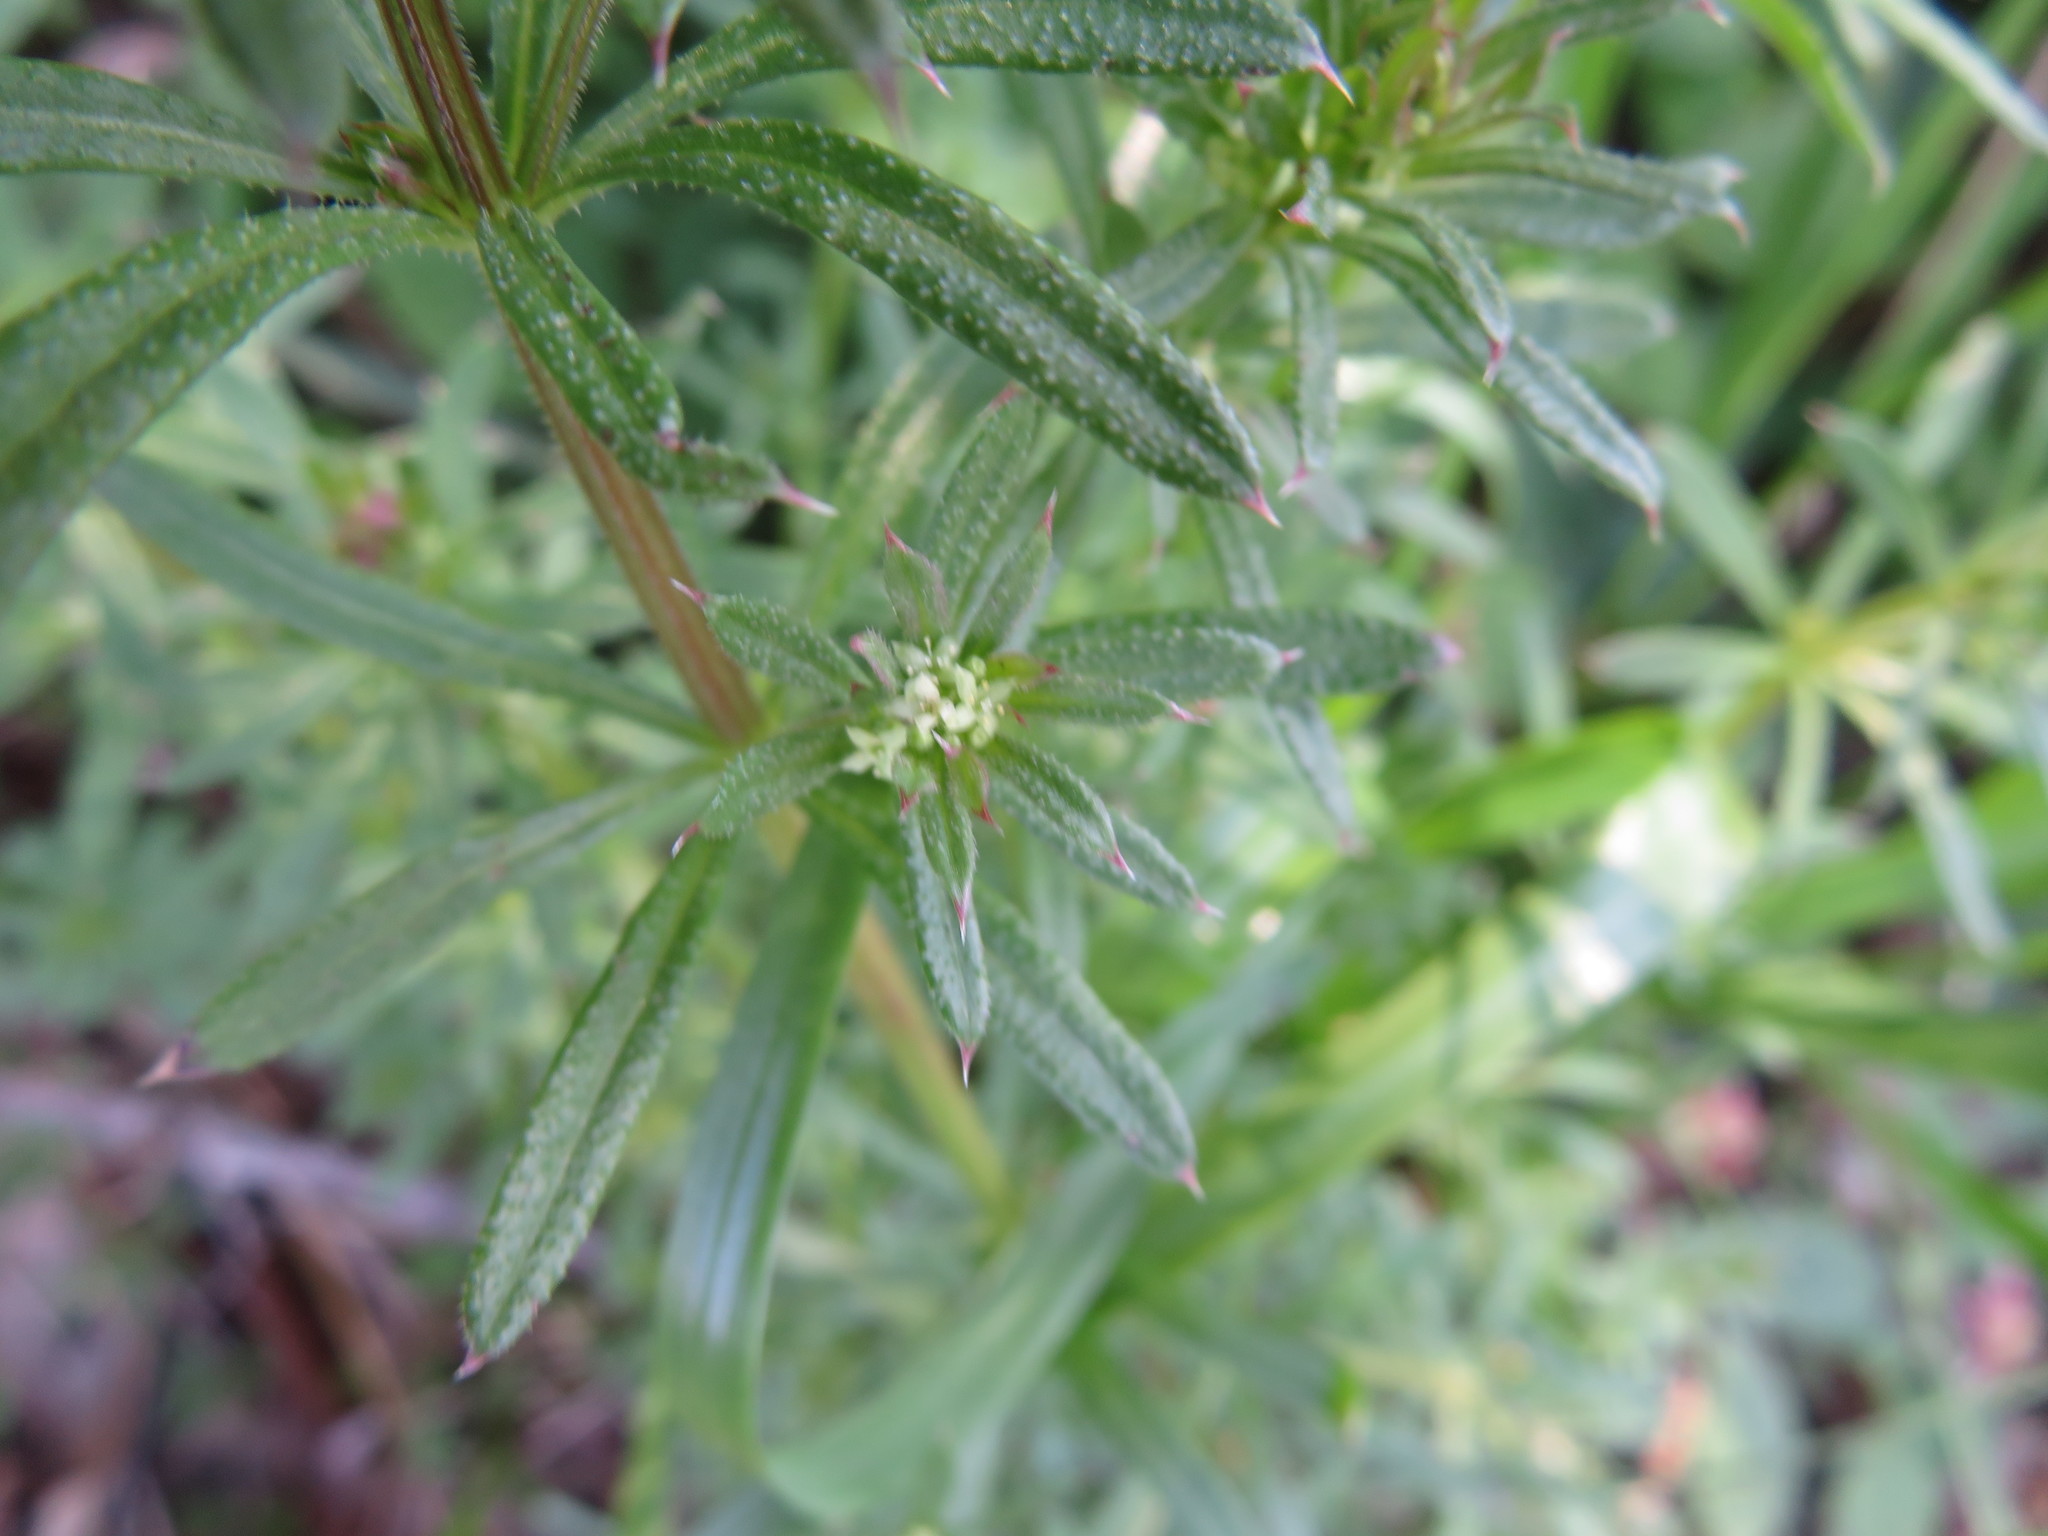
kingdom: Plantae
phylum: Tracheophyta
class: Magnoliopsida
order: Gentianales
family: Rubiaceae
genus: Galium
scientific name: Galium
